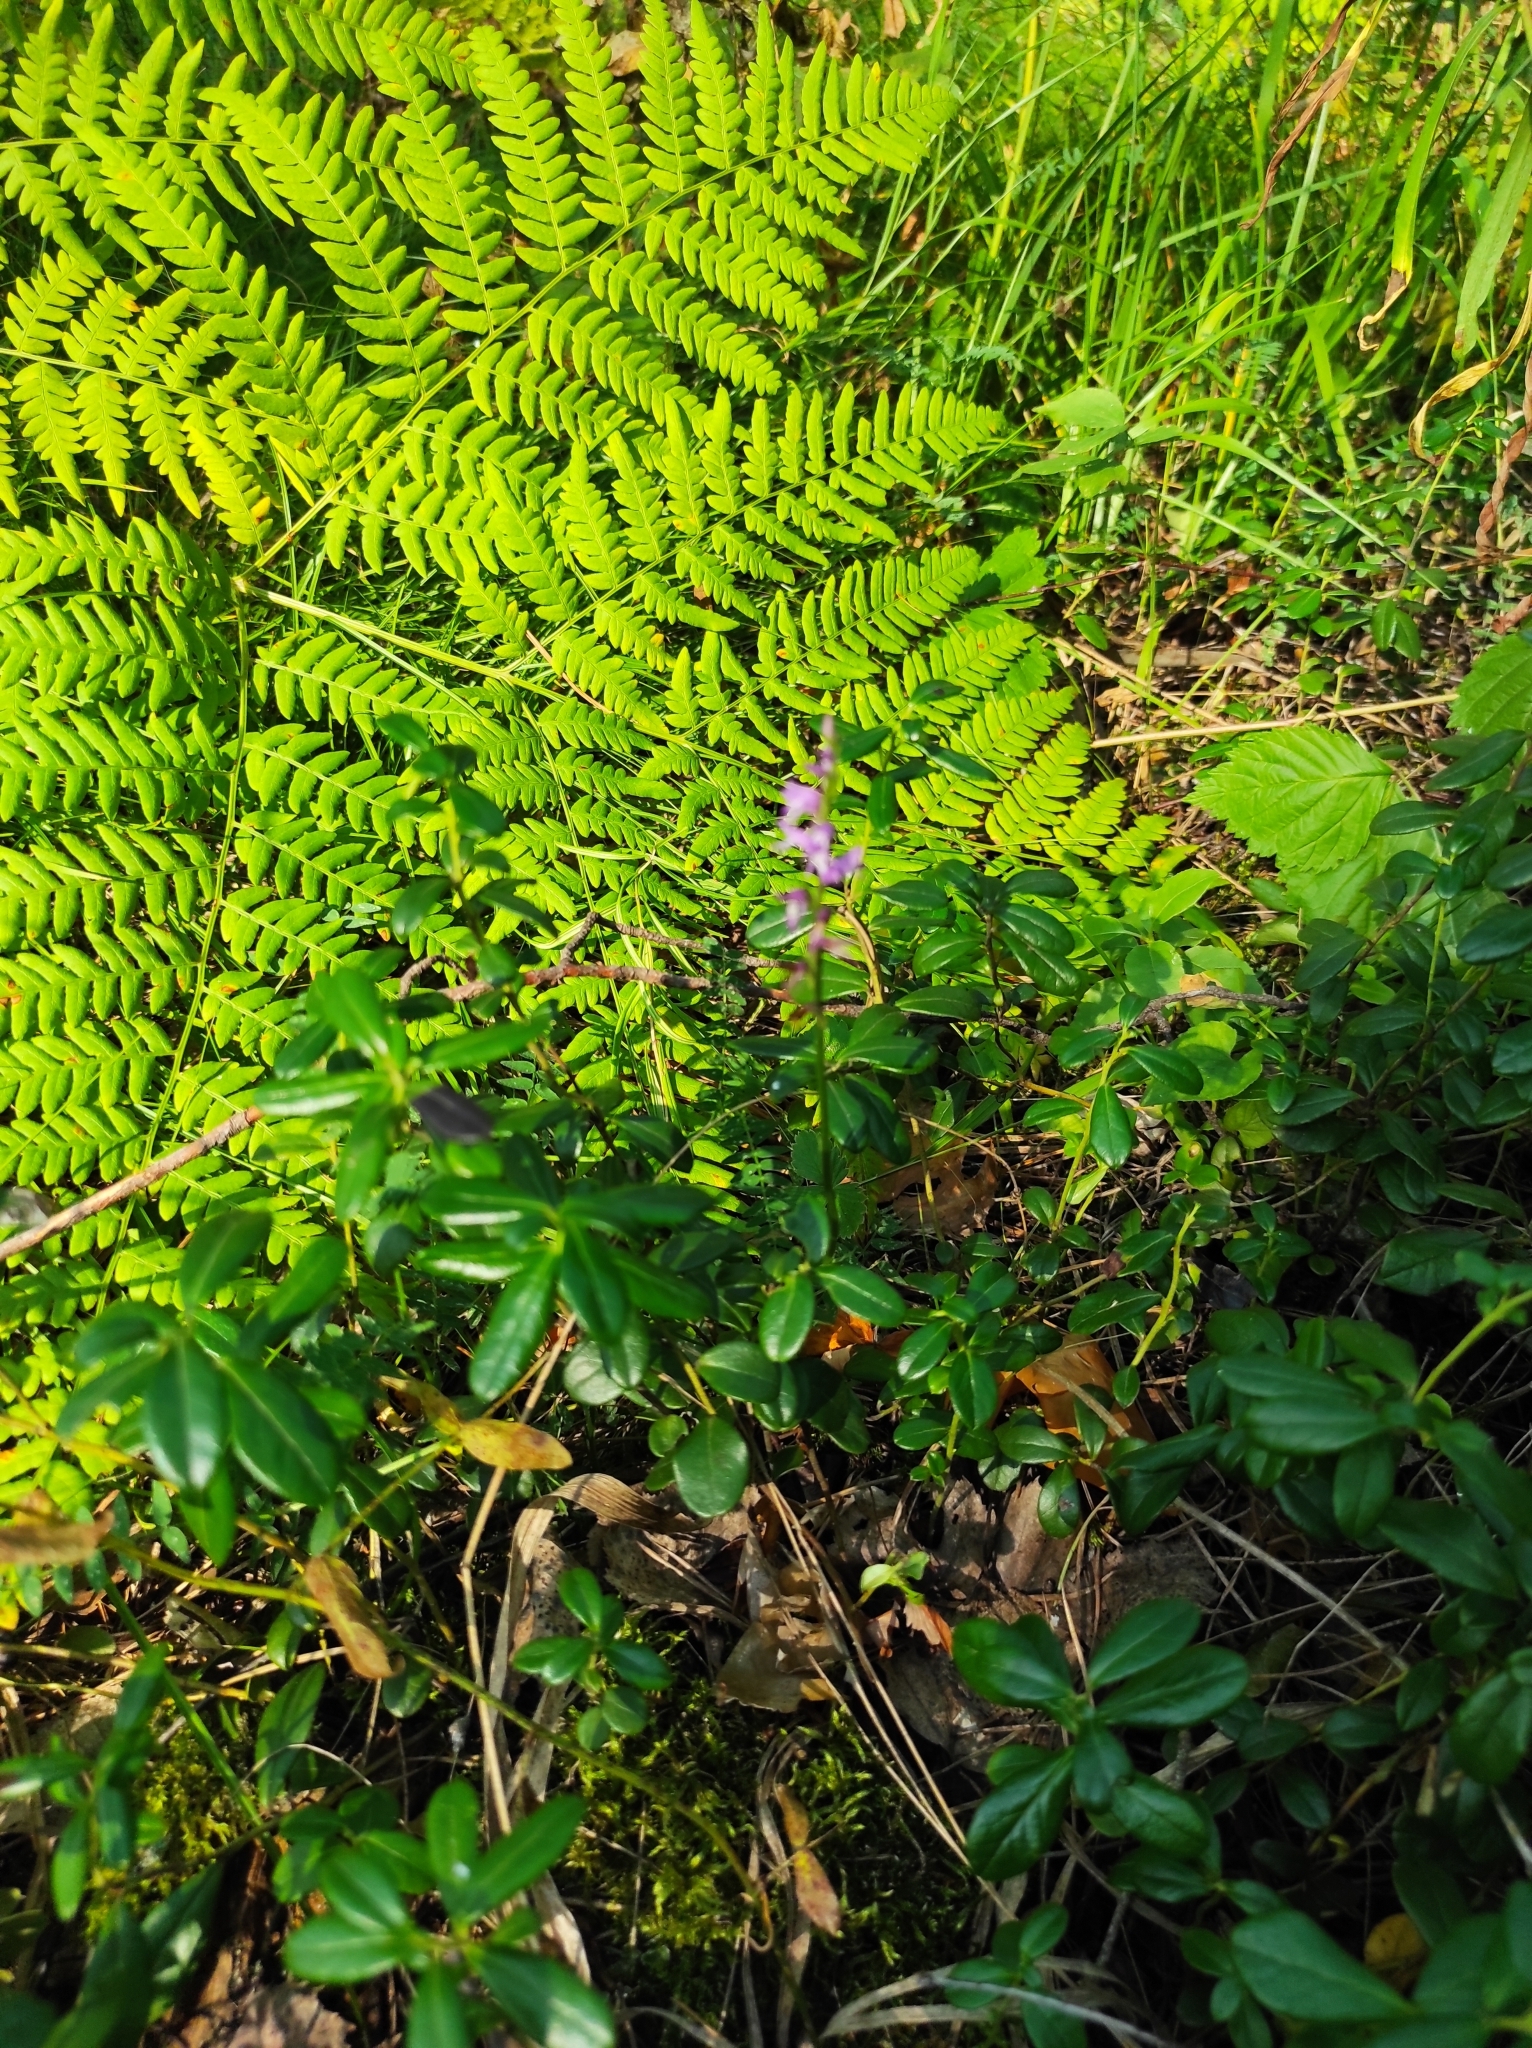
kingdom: Plantae
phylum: Tracheophyta
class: Liliopsida
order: Asparagales
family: Orchidaceae
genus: Hemipilia
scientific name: Hemipilia cucullata
